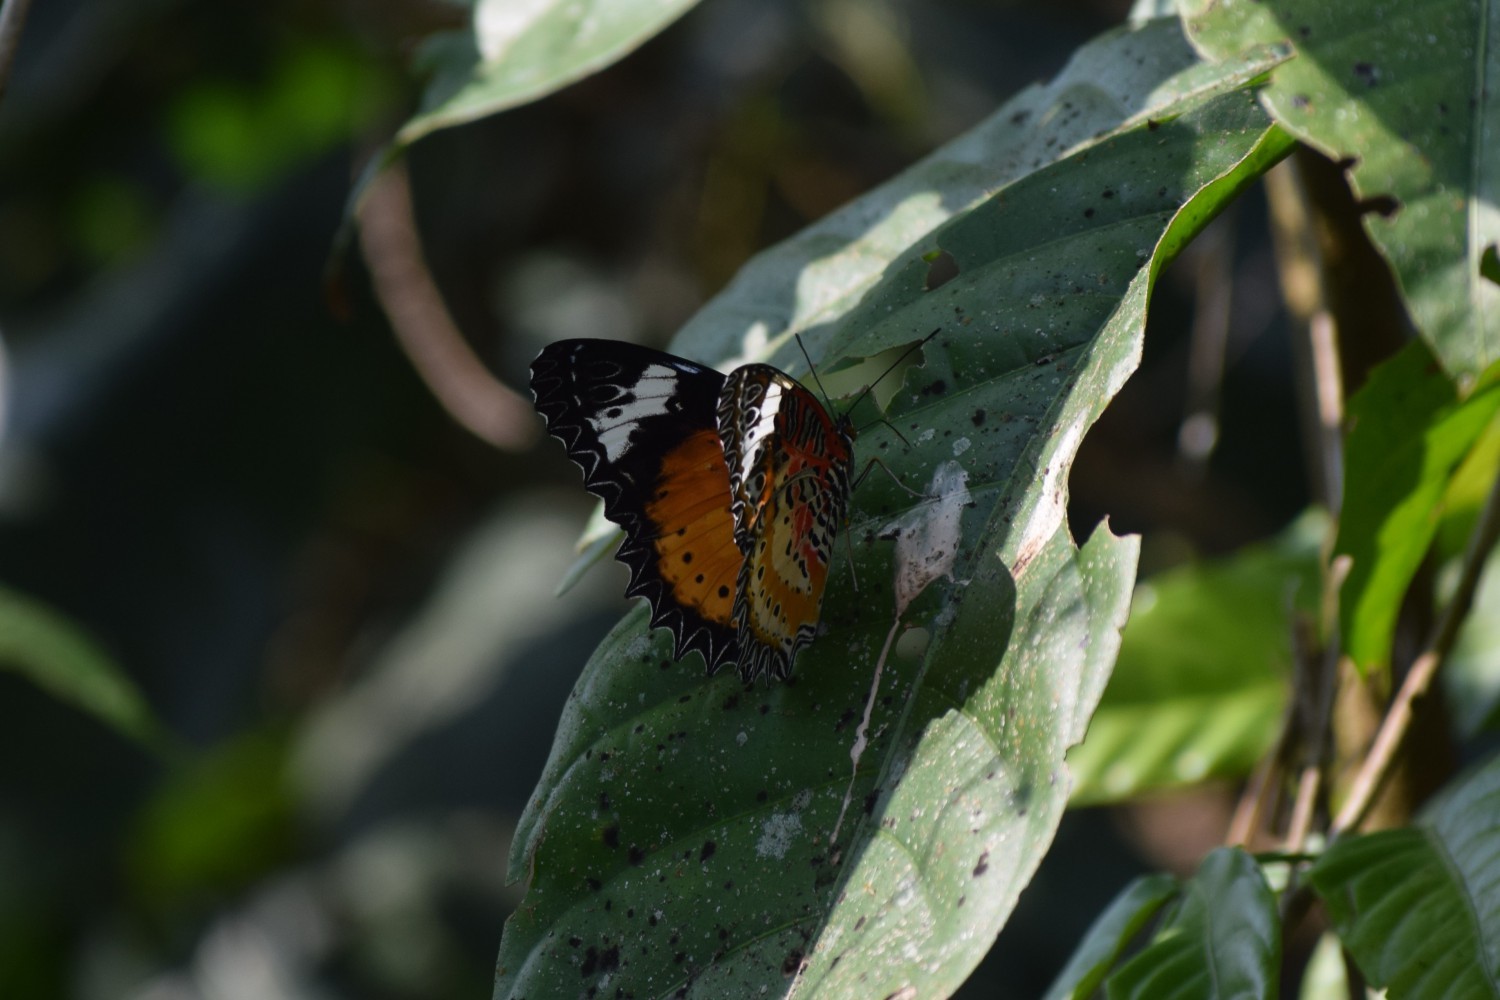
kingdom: Animalia
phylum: Arthropoda
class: Insecta
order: Lepidoptera
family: Nymphalidae
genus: Cethosia
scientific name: Cethosia cyane
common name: Leopard lacewing butterfly
